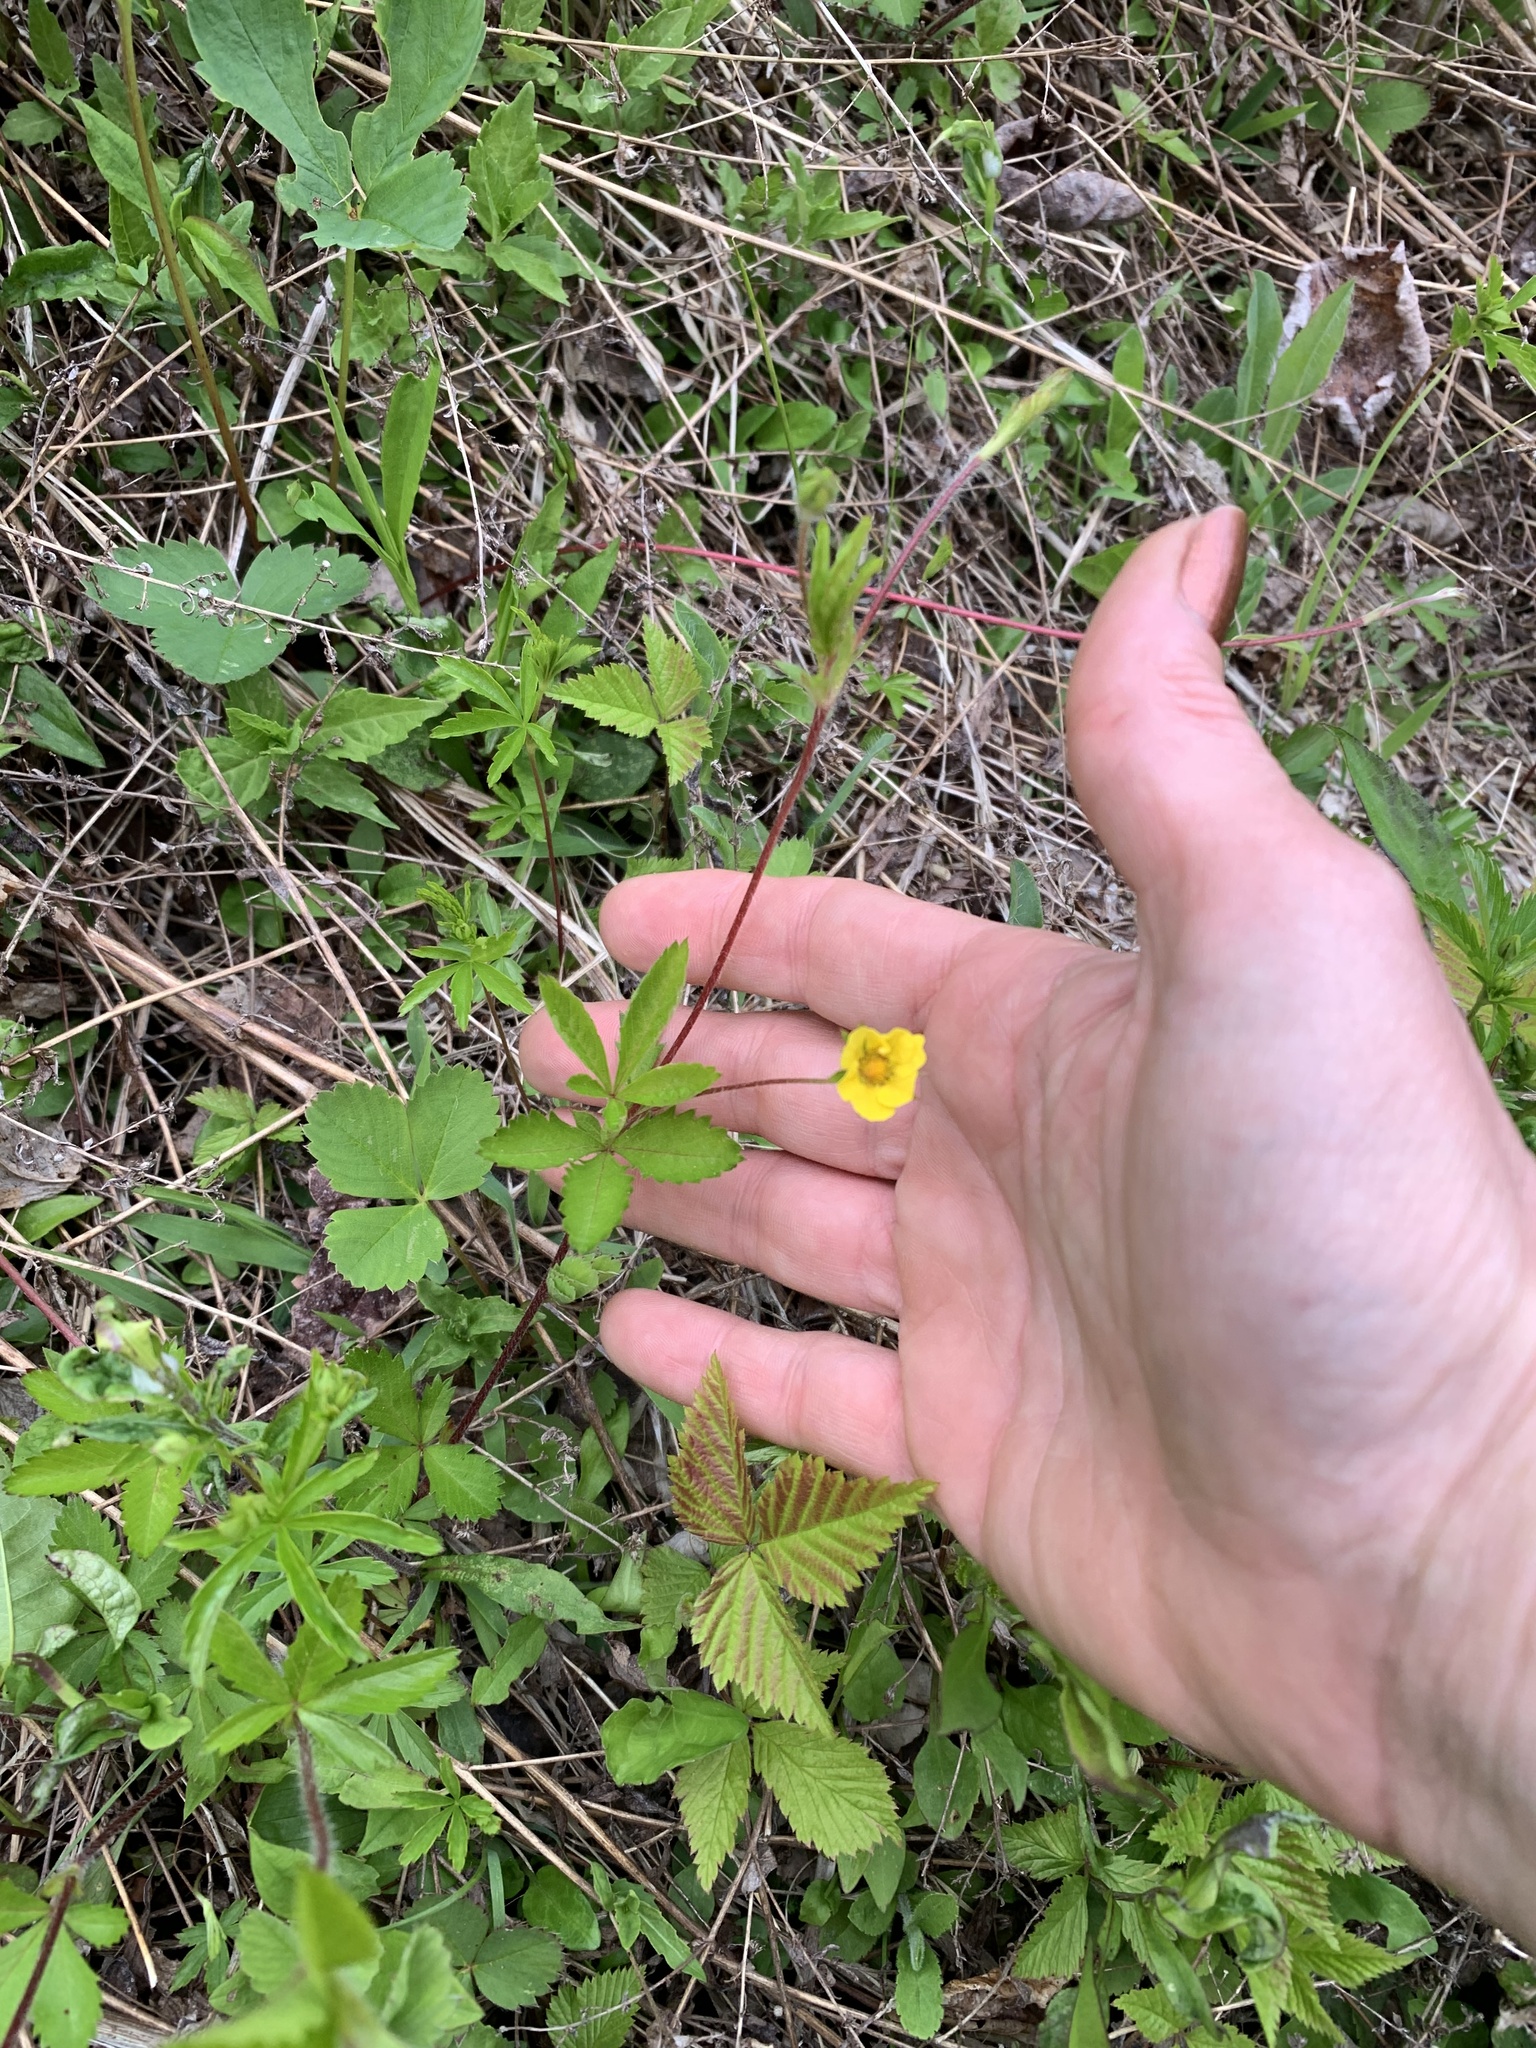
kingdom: Plantae
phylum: Tracheophyta
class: Magnoliopsida
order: Rosales
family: Rosaceae
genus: Potentilla
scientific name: Potentilla simplex
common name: Old field cinquefoil
